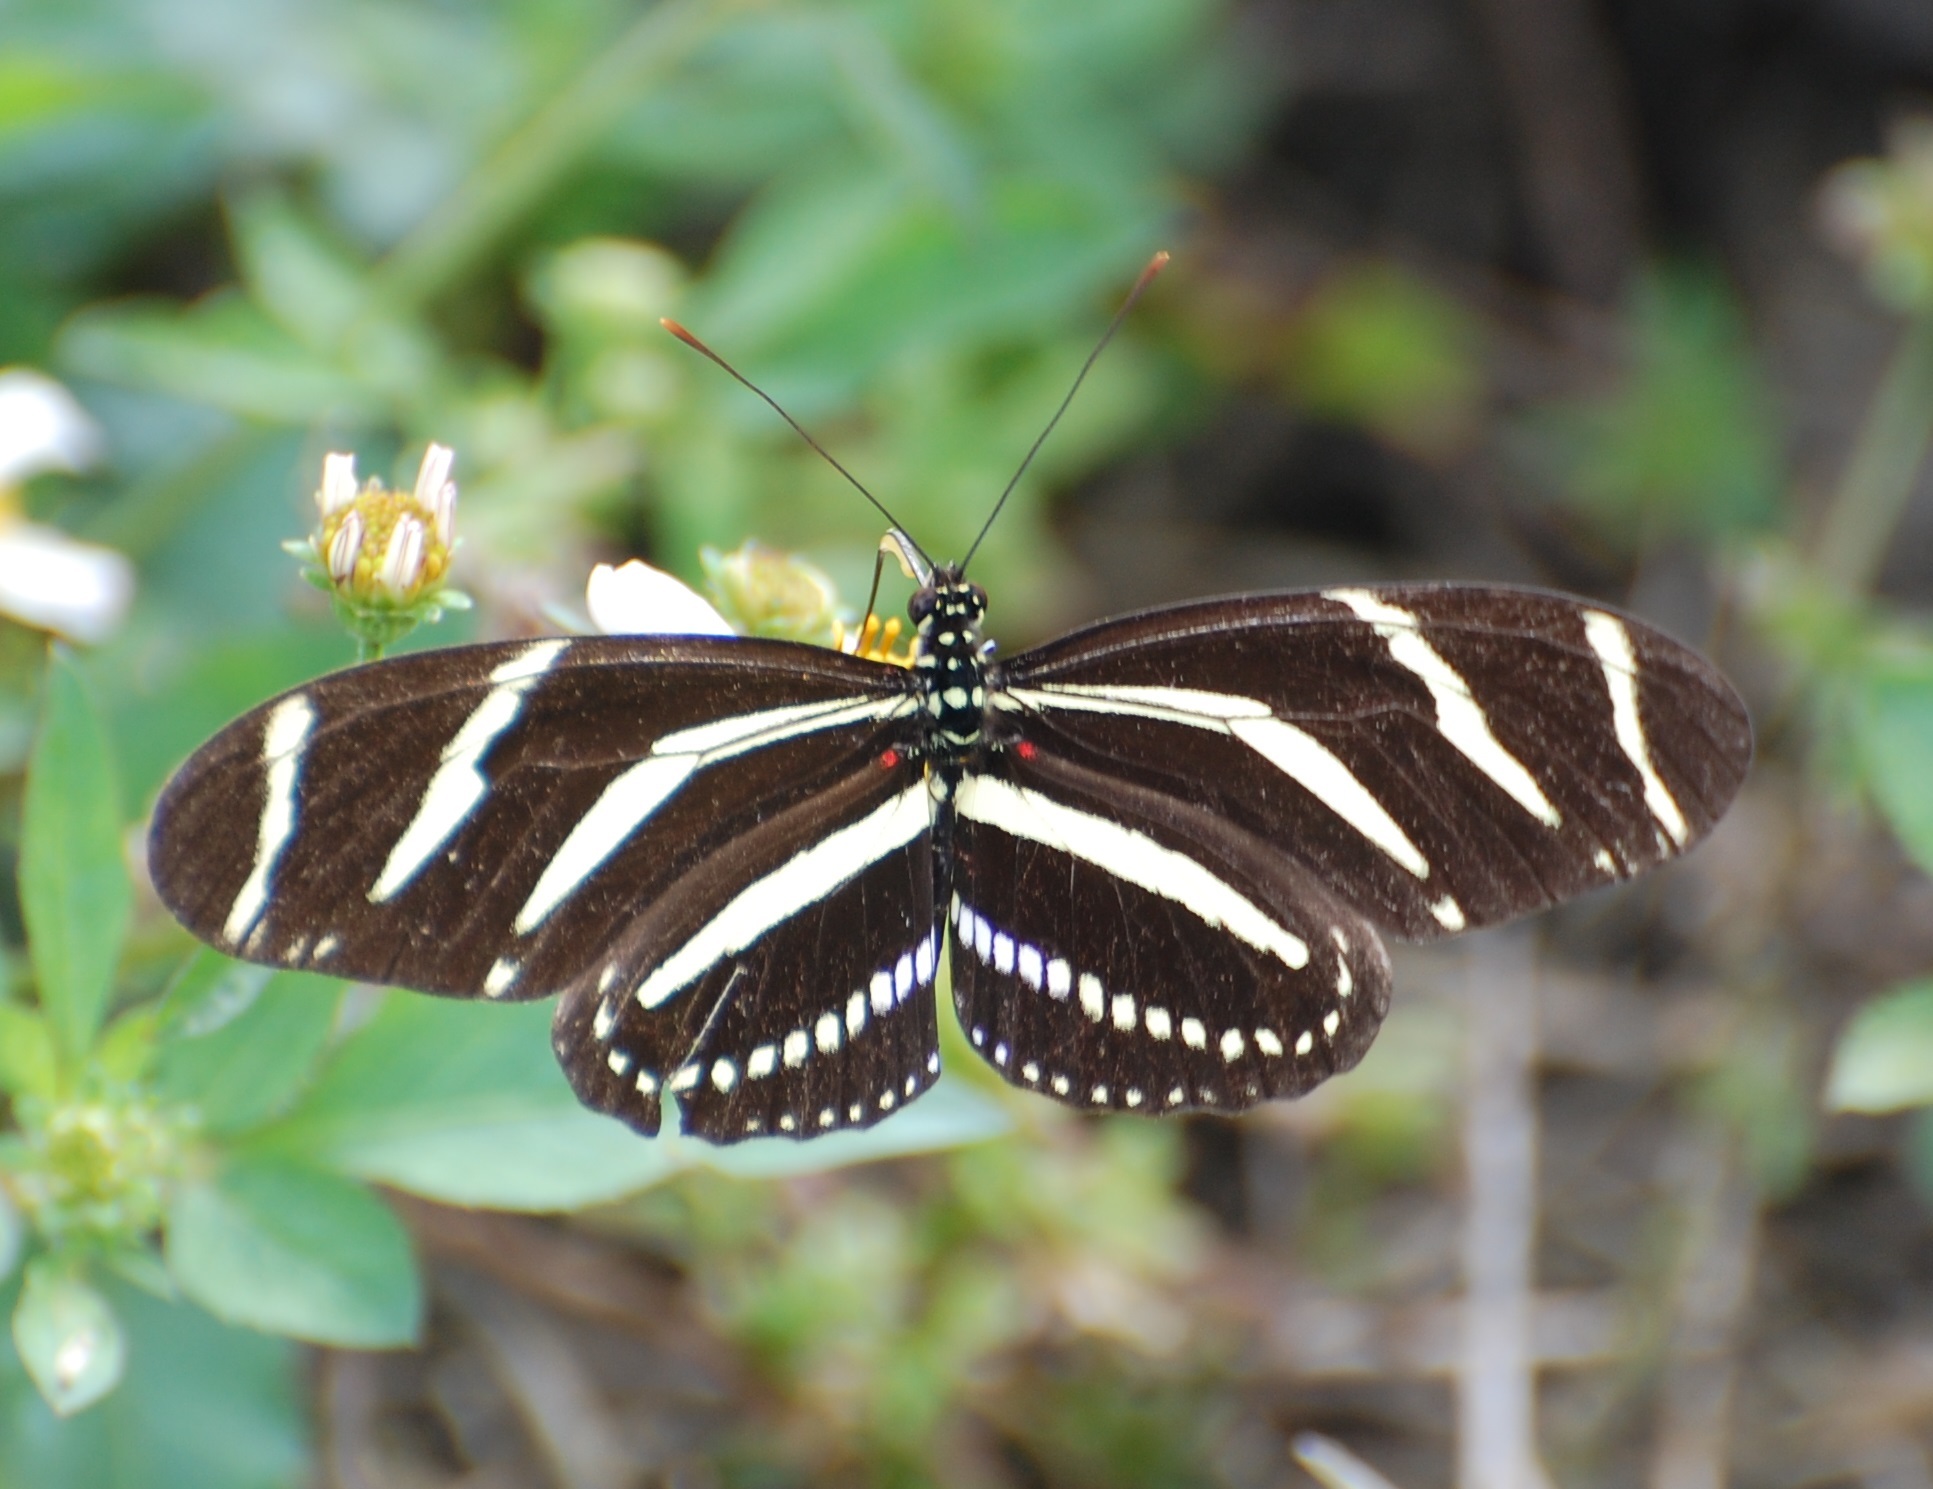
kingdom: Animalia
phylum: Arthropoda
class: Insecta
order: Lepidoptera
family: Nymphalidae
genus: Heliconius
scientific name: Heliconius charithonia
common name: Zebra long wing
